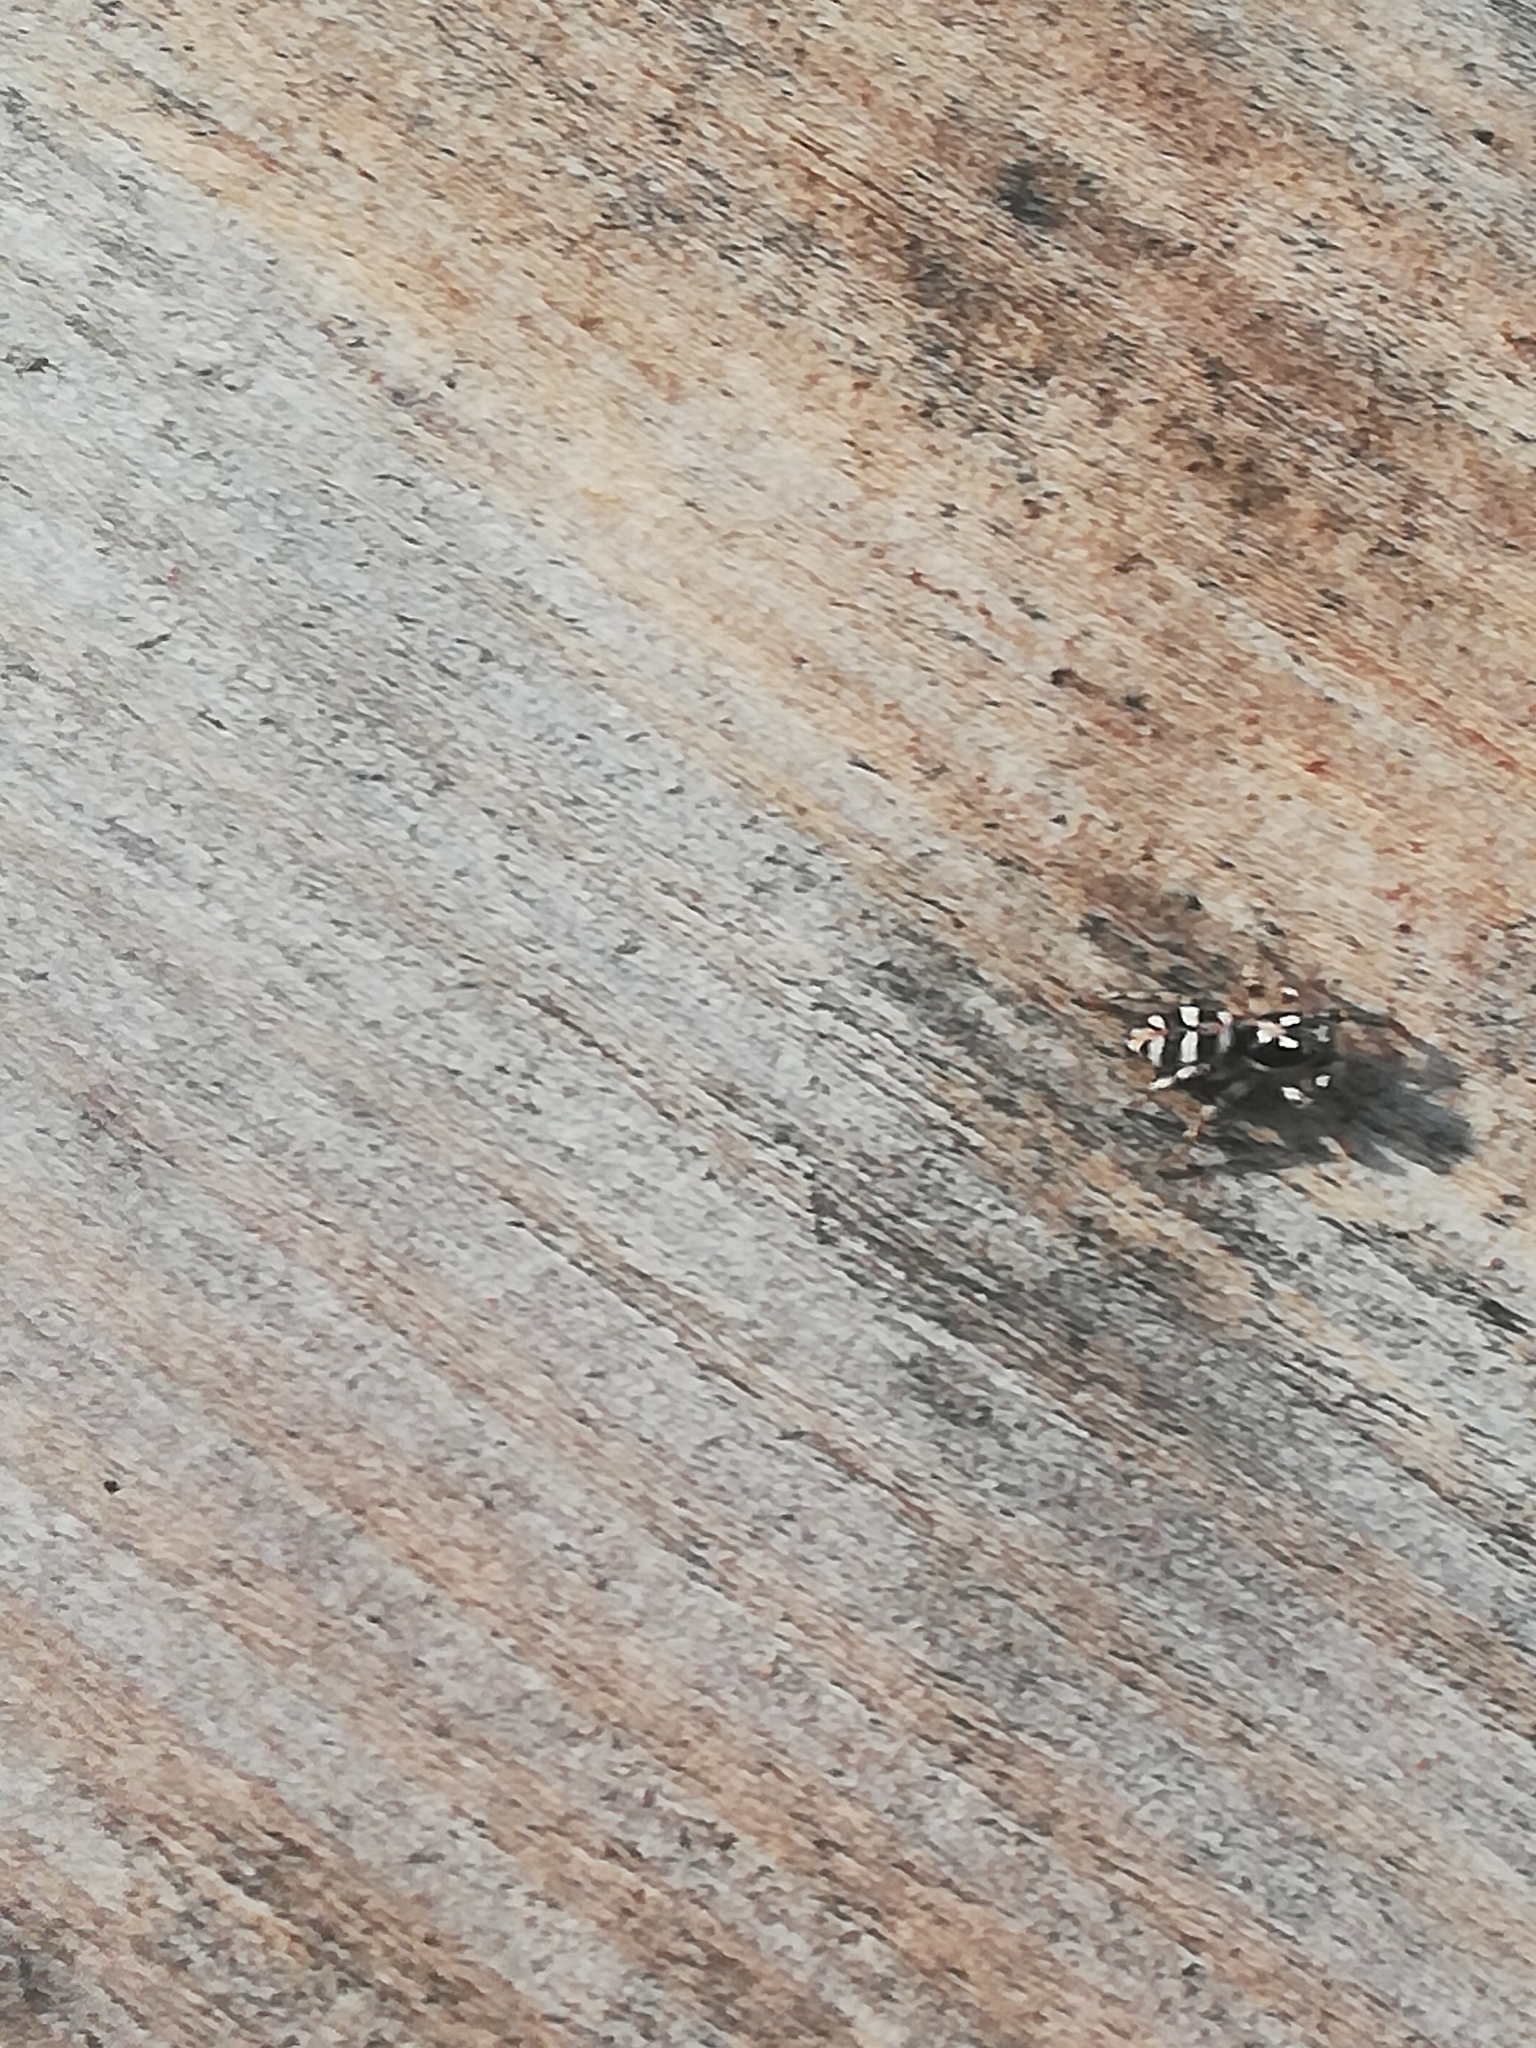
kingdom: Animalia
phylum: Arthropoda
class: Arachnida
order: Araneae
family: Salticidae
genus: Salticus
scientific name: Salticus scenicus
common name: Zebra jumper
